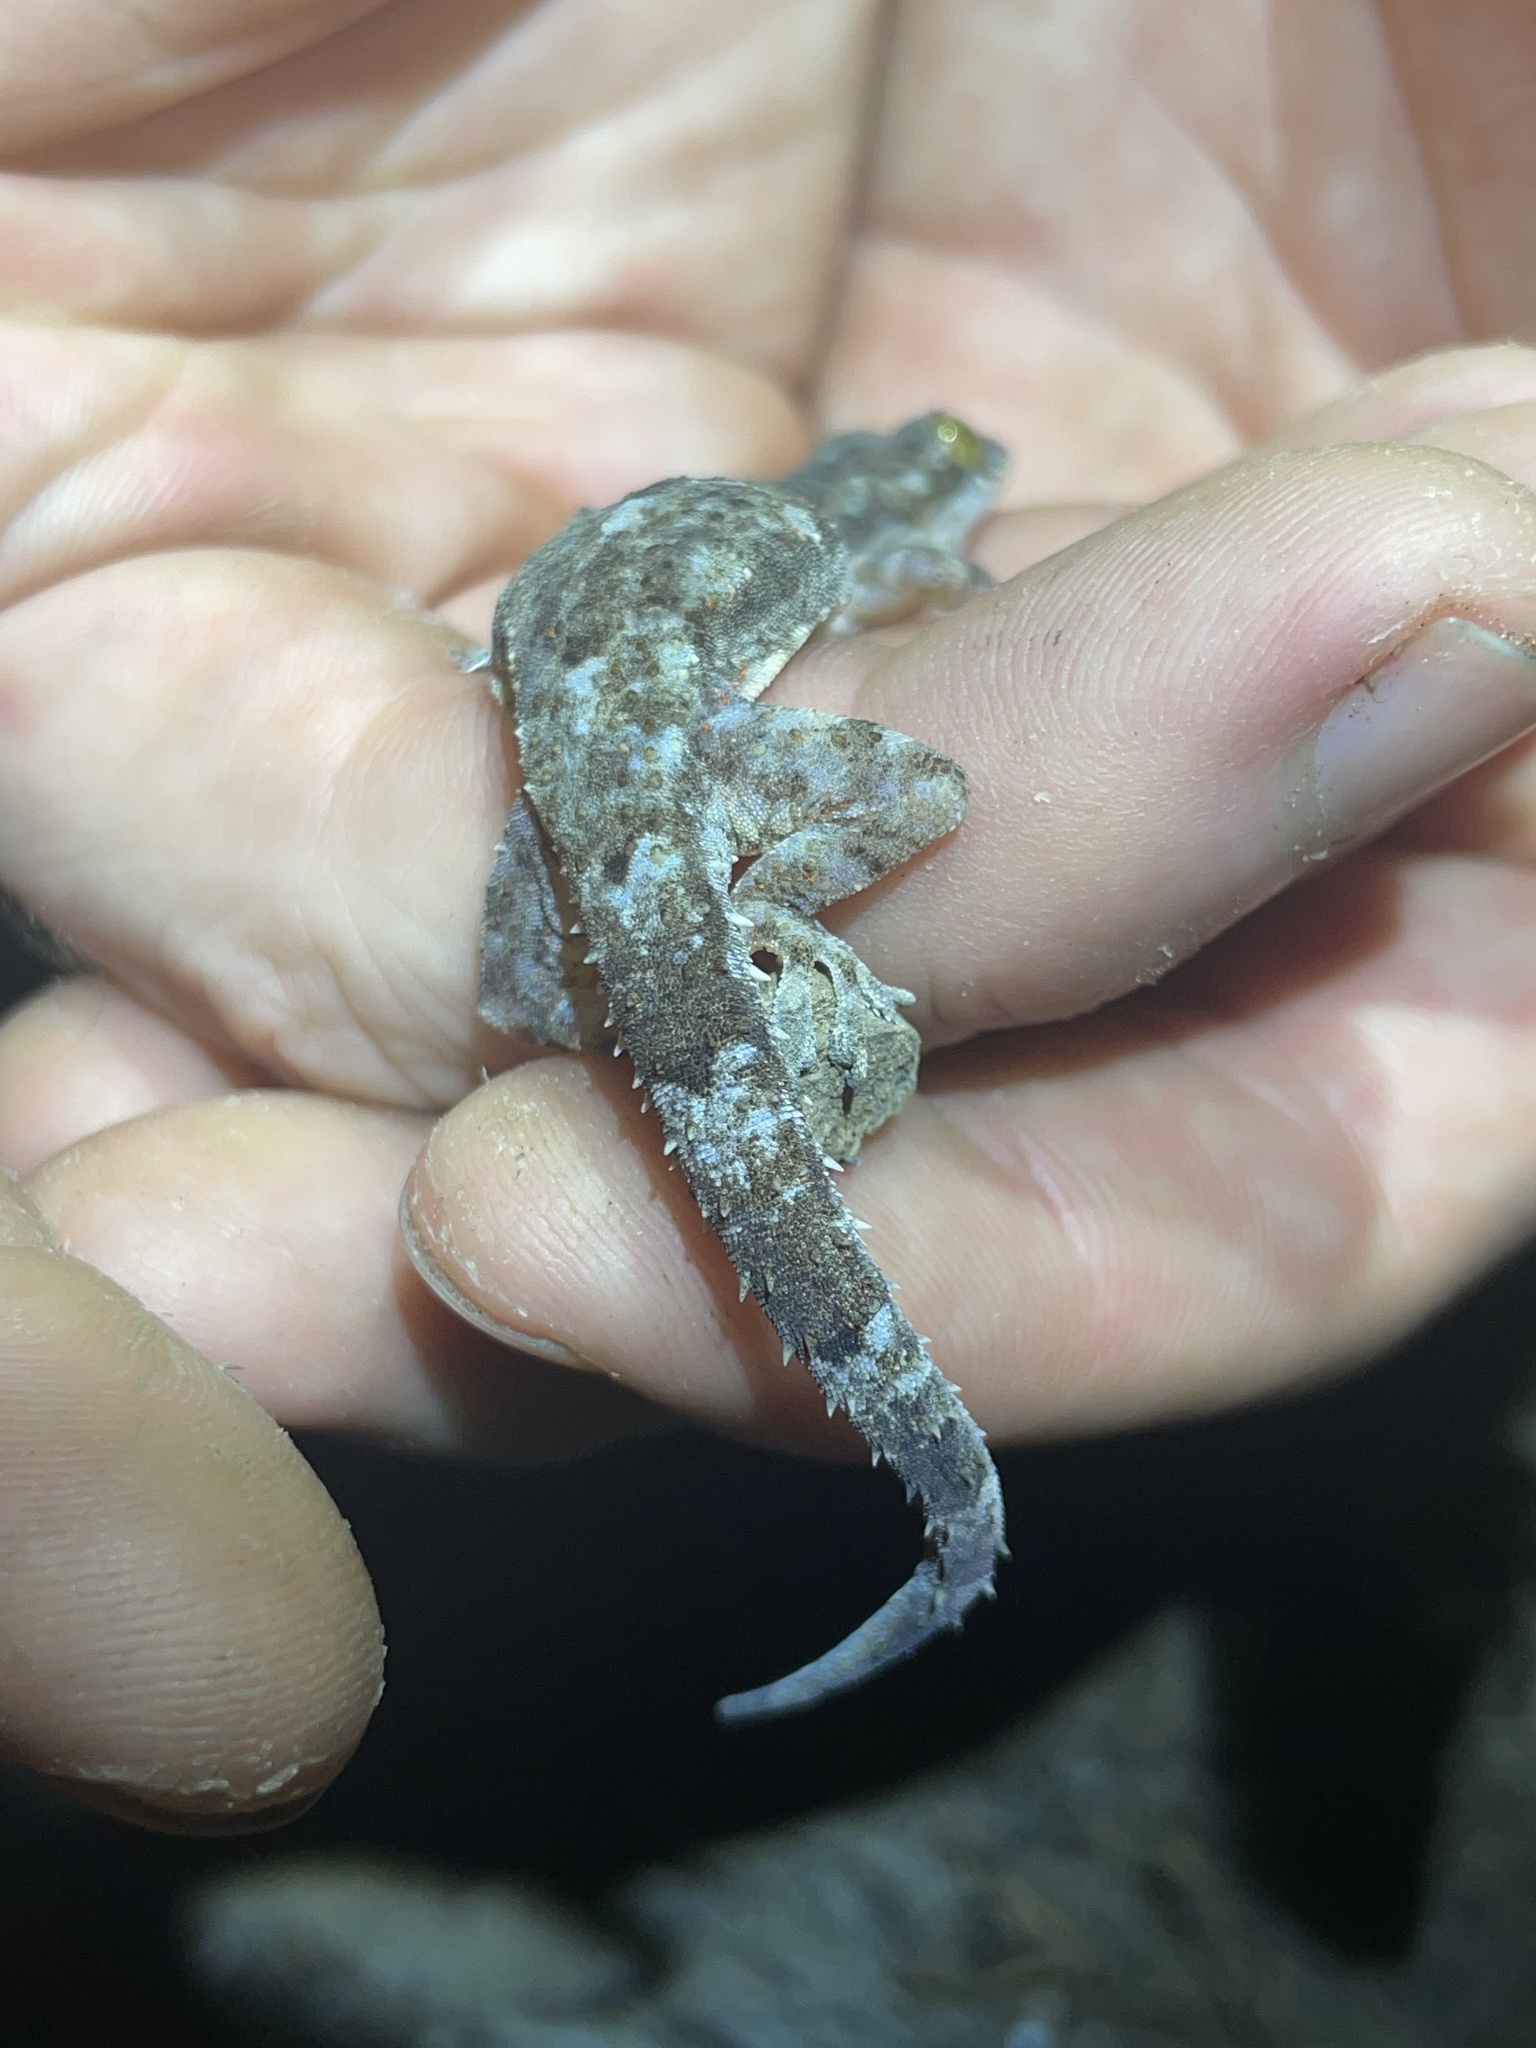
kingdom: Animalia
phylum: Chordata
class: Squamata
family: Gekkonidae
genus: Hemidactylus
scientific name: Hemidactylus mabouia
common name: House gecko
